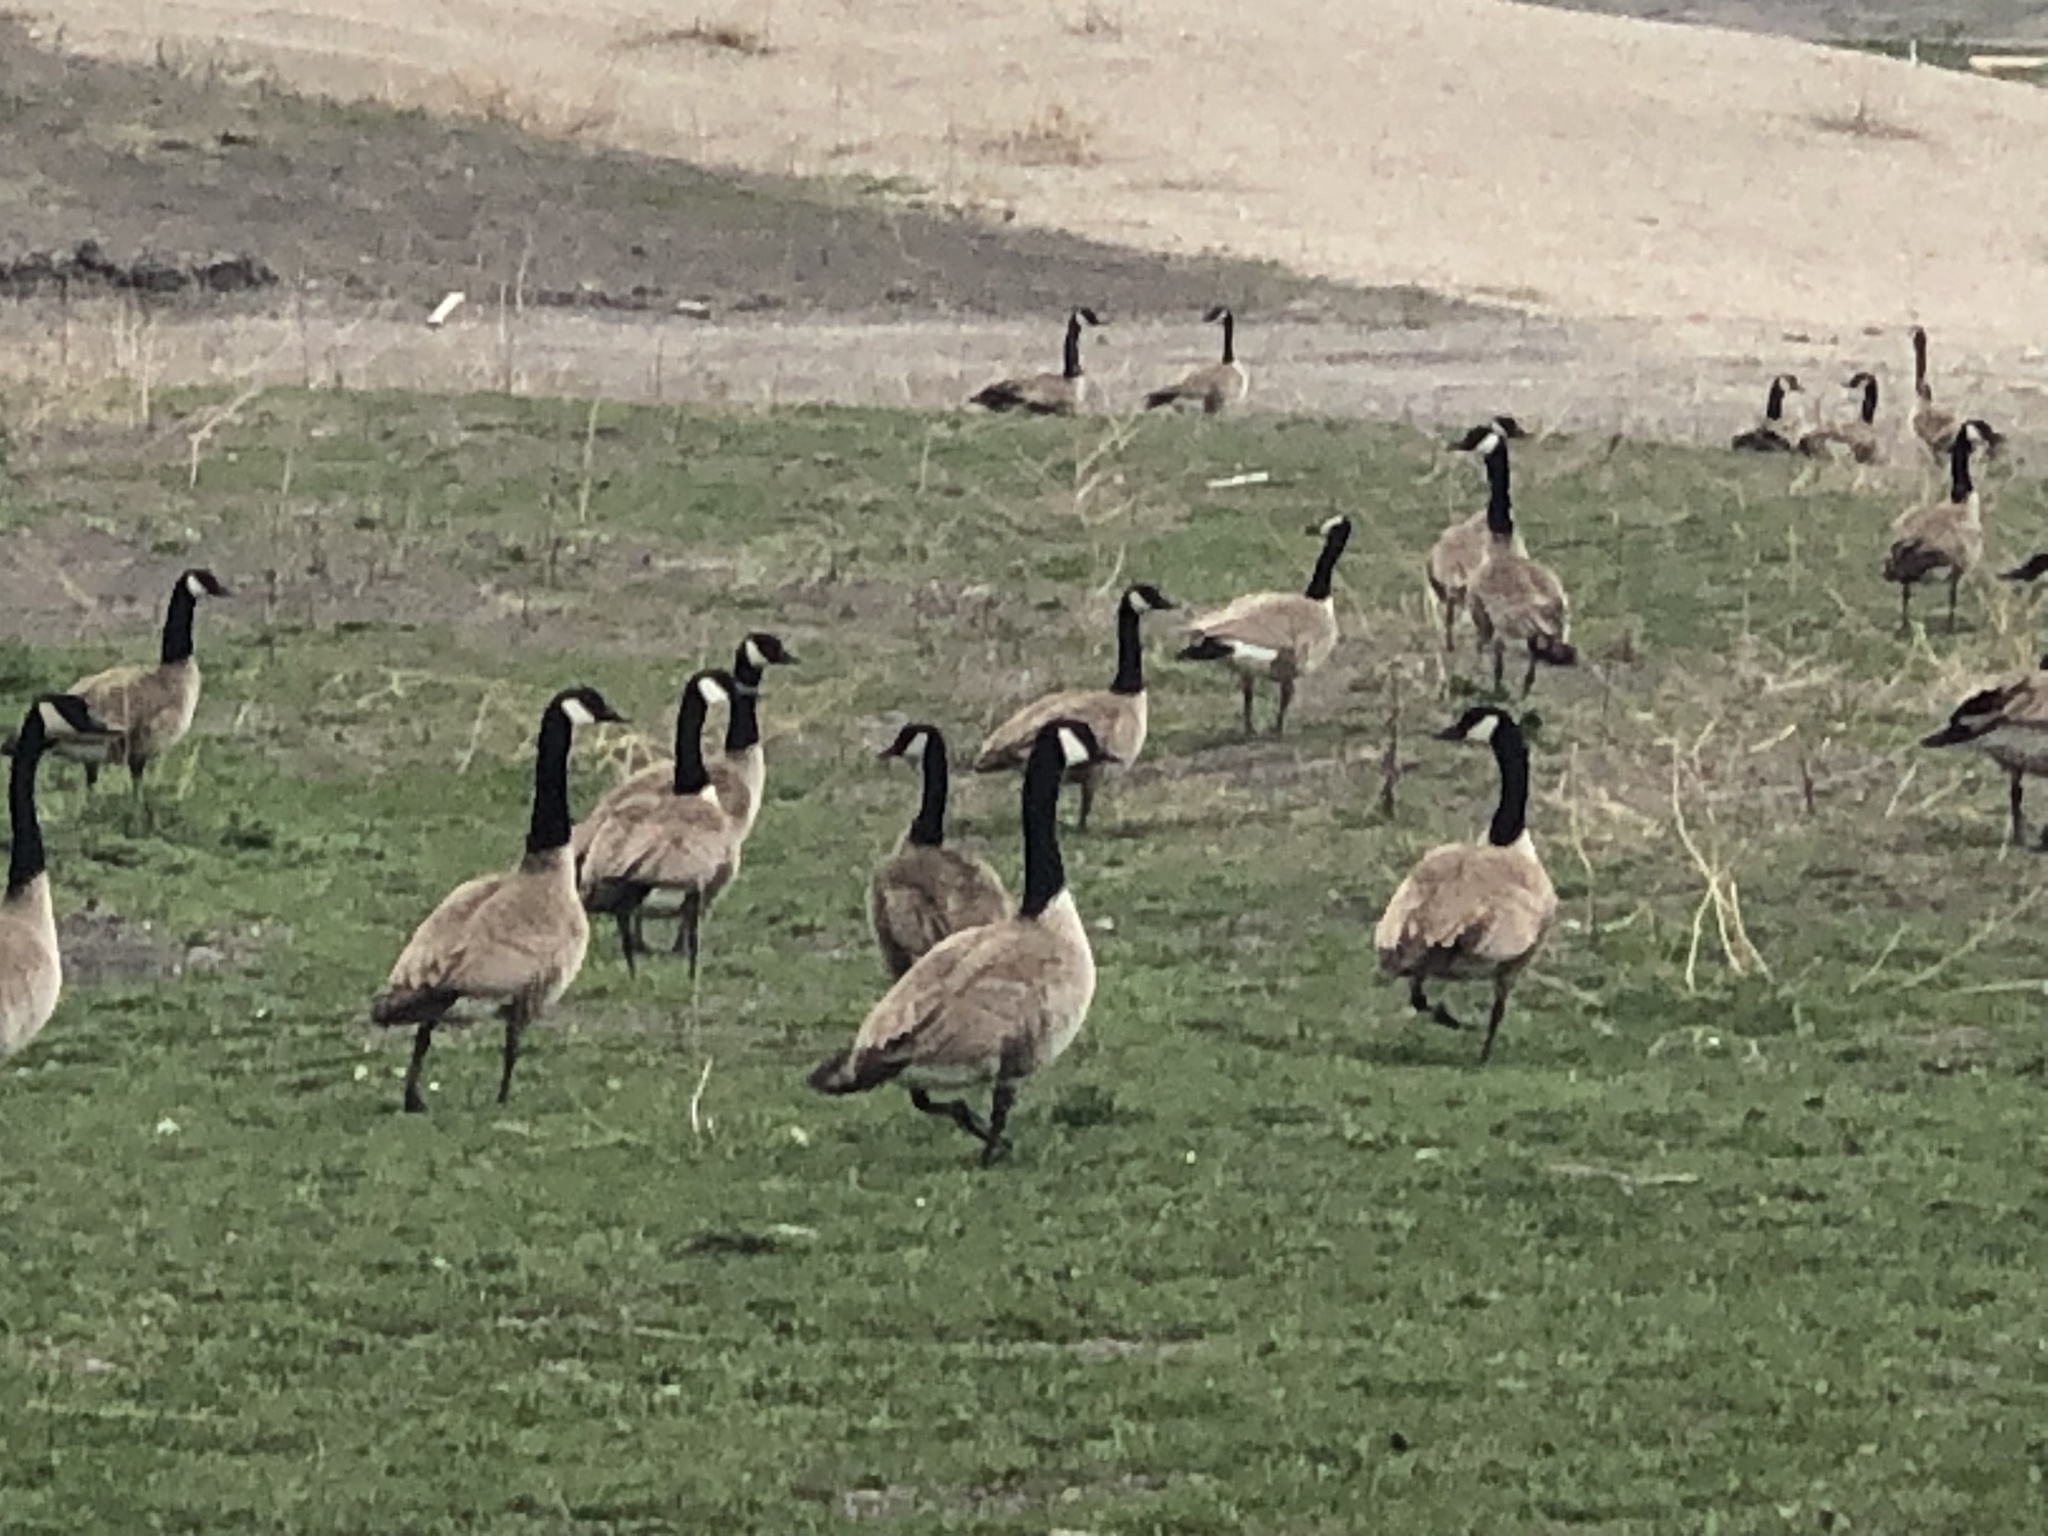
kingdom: Animalia
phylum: Chordata
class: Aves
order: Anseriformes
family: Anatidae
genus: Branta
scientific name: Branta canadensis
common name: Canada goose
